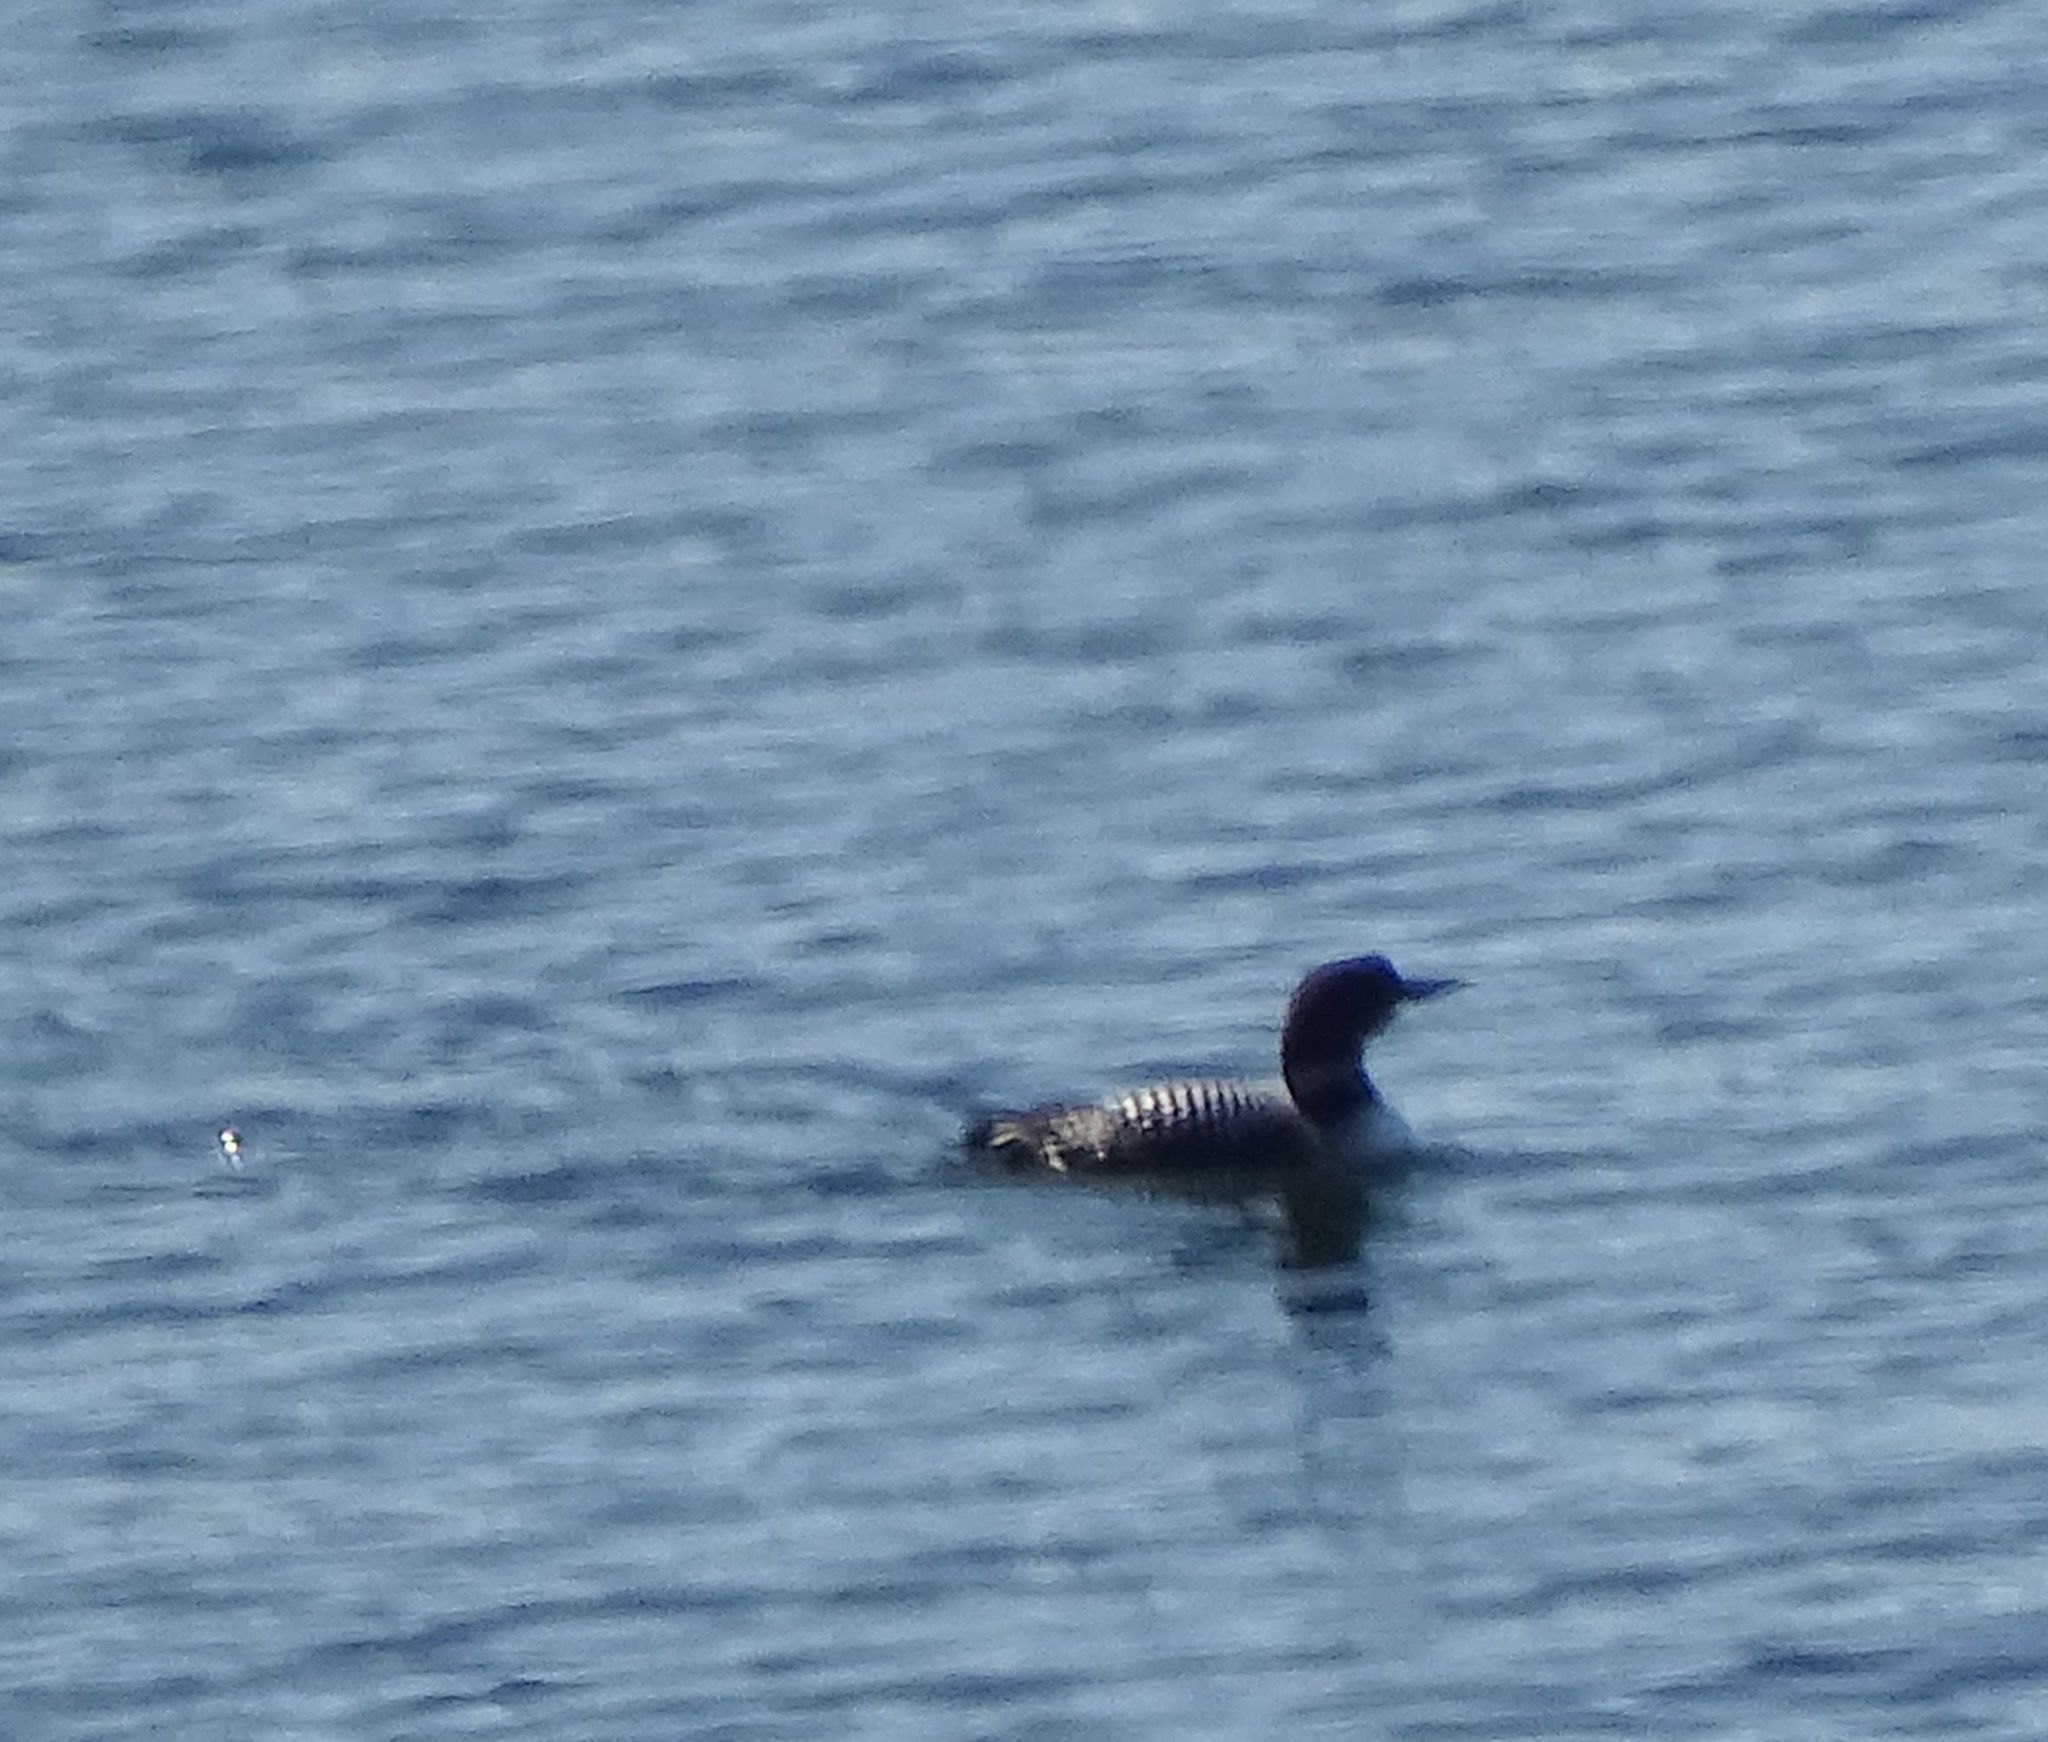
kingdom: Animalia
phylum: Chordata
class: Aves
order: Gaviiformes
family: Gaviidae
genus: Gavia
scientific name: Gavia immer
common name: Common loon
